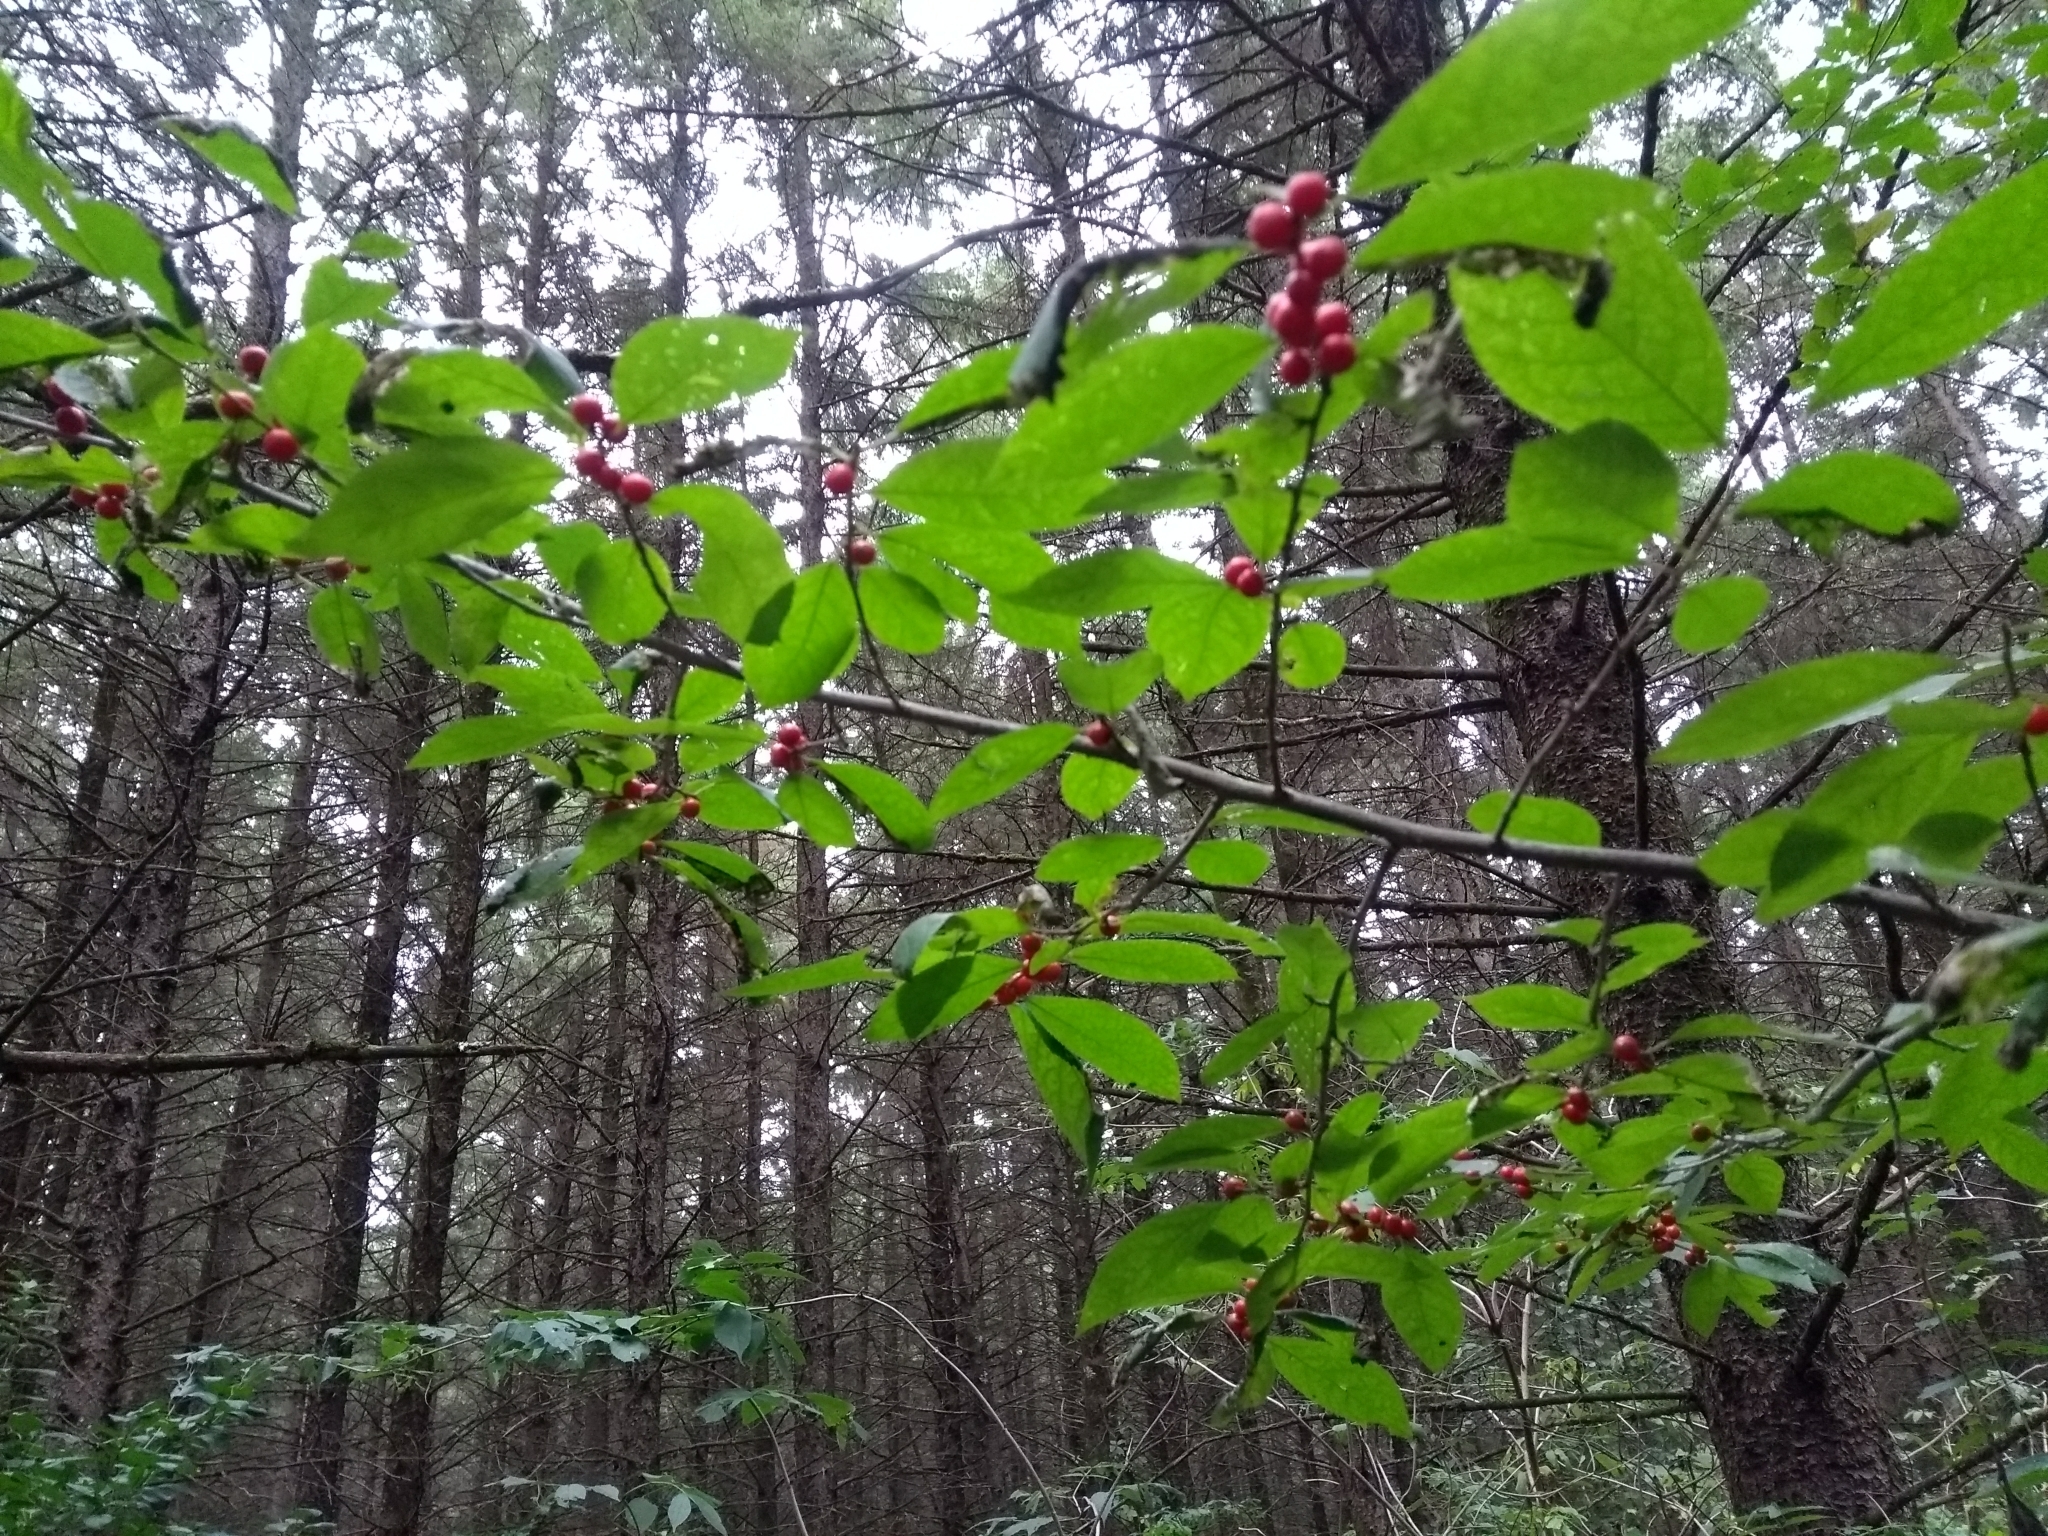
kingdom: Plantae
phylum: Tracheophyta
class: Magnoliopsida
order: Aquifoliales
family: Aquifoliaceae
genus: Ilex
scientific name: Ilex verticillata
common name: Virginia winterberry
